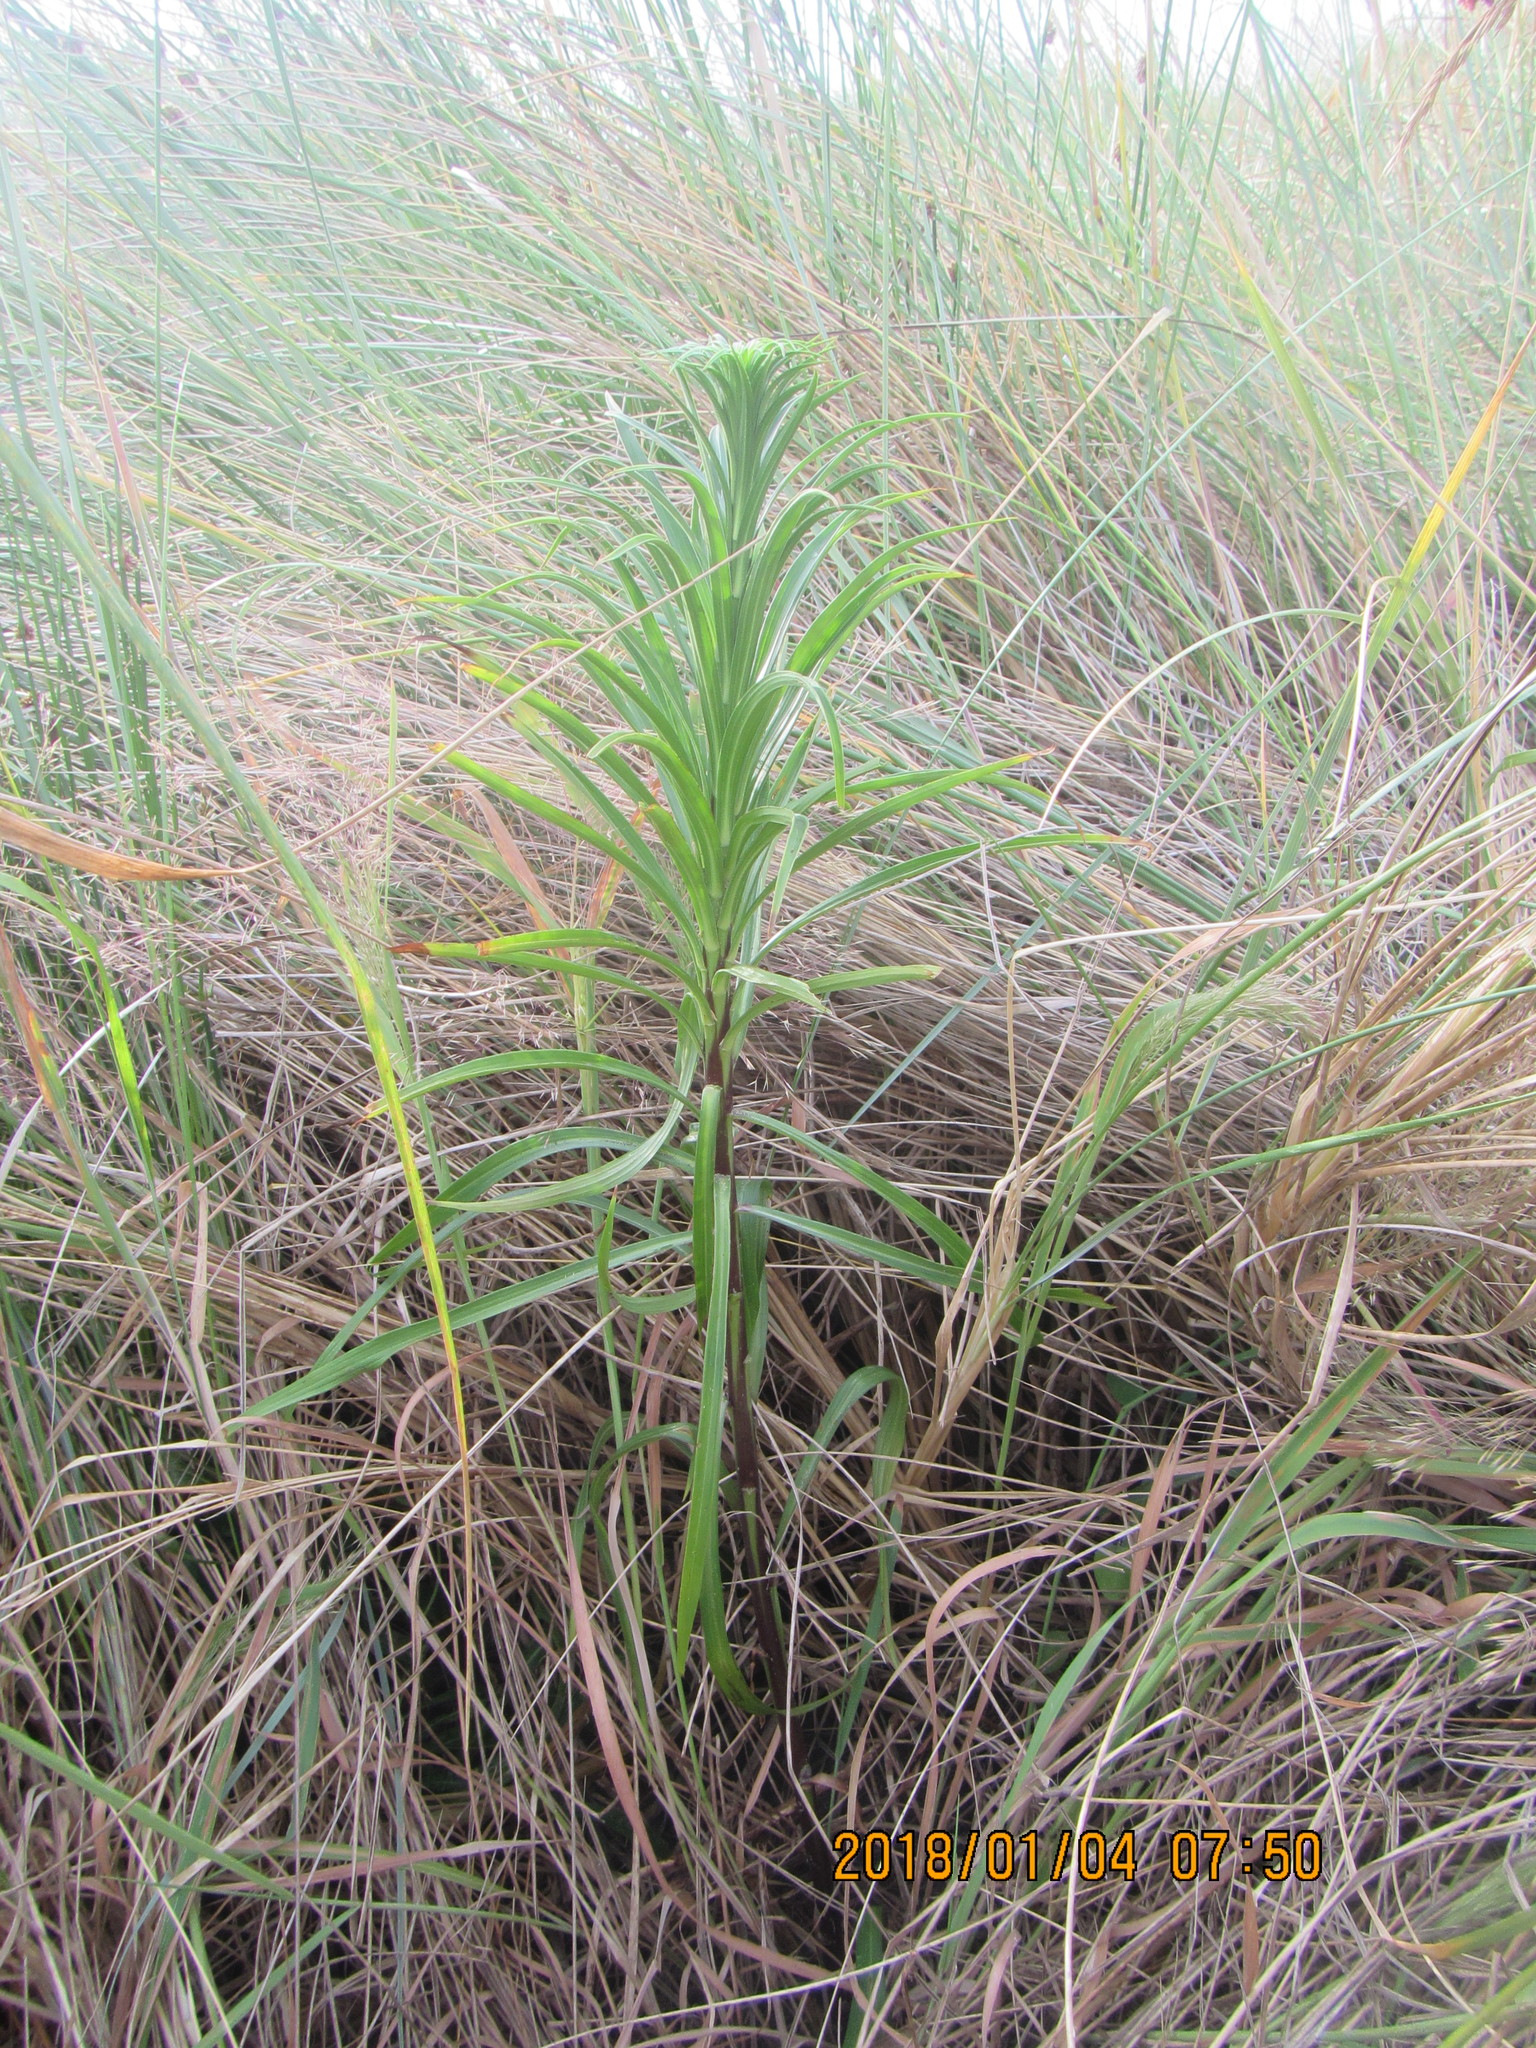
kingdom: Plantae
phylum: Tracheophyta
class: Liliopsida
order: Liliales
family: Liliaceae
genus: Lilium
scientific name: Lilium formosanum
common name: Formosa lily
